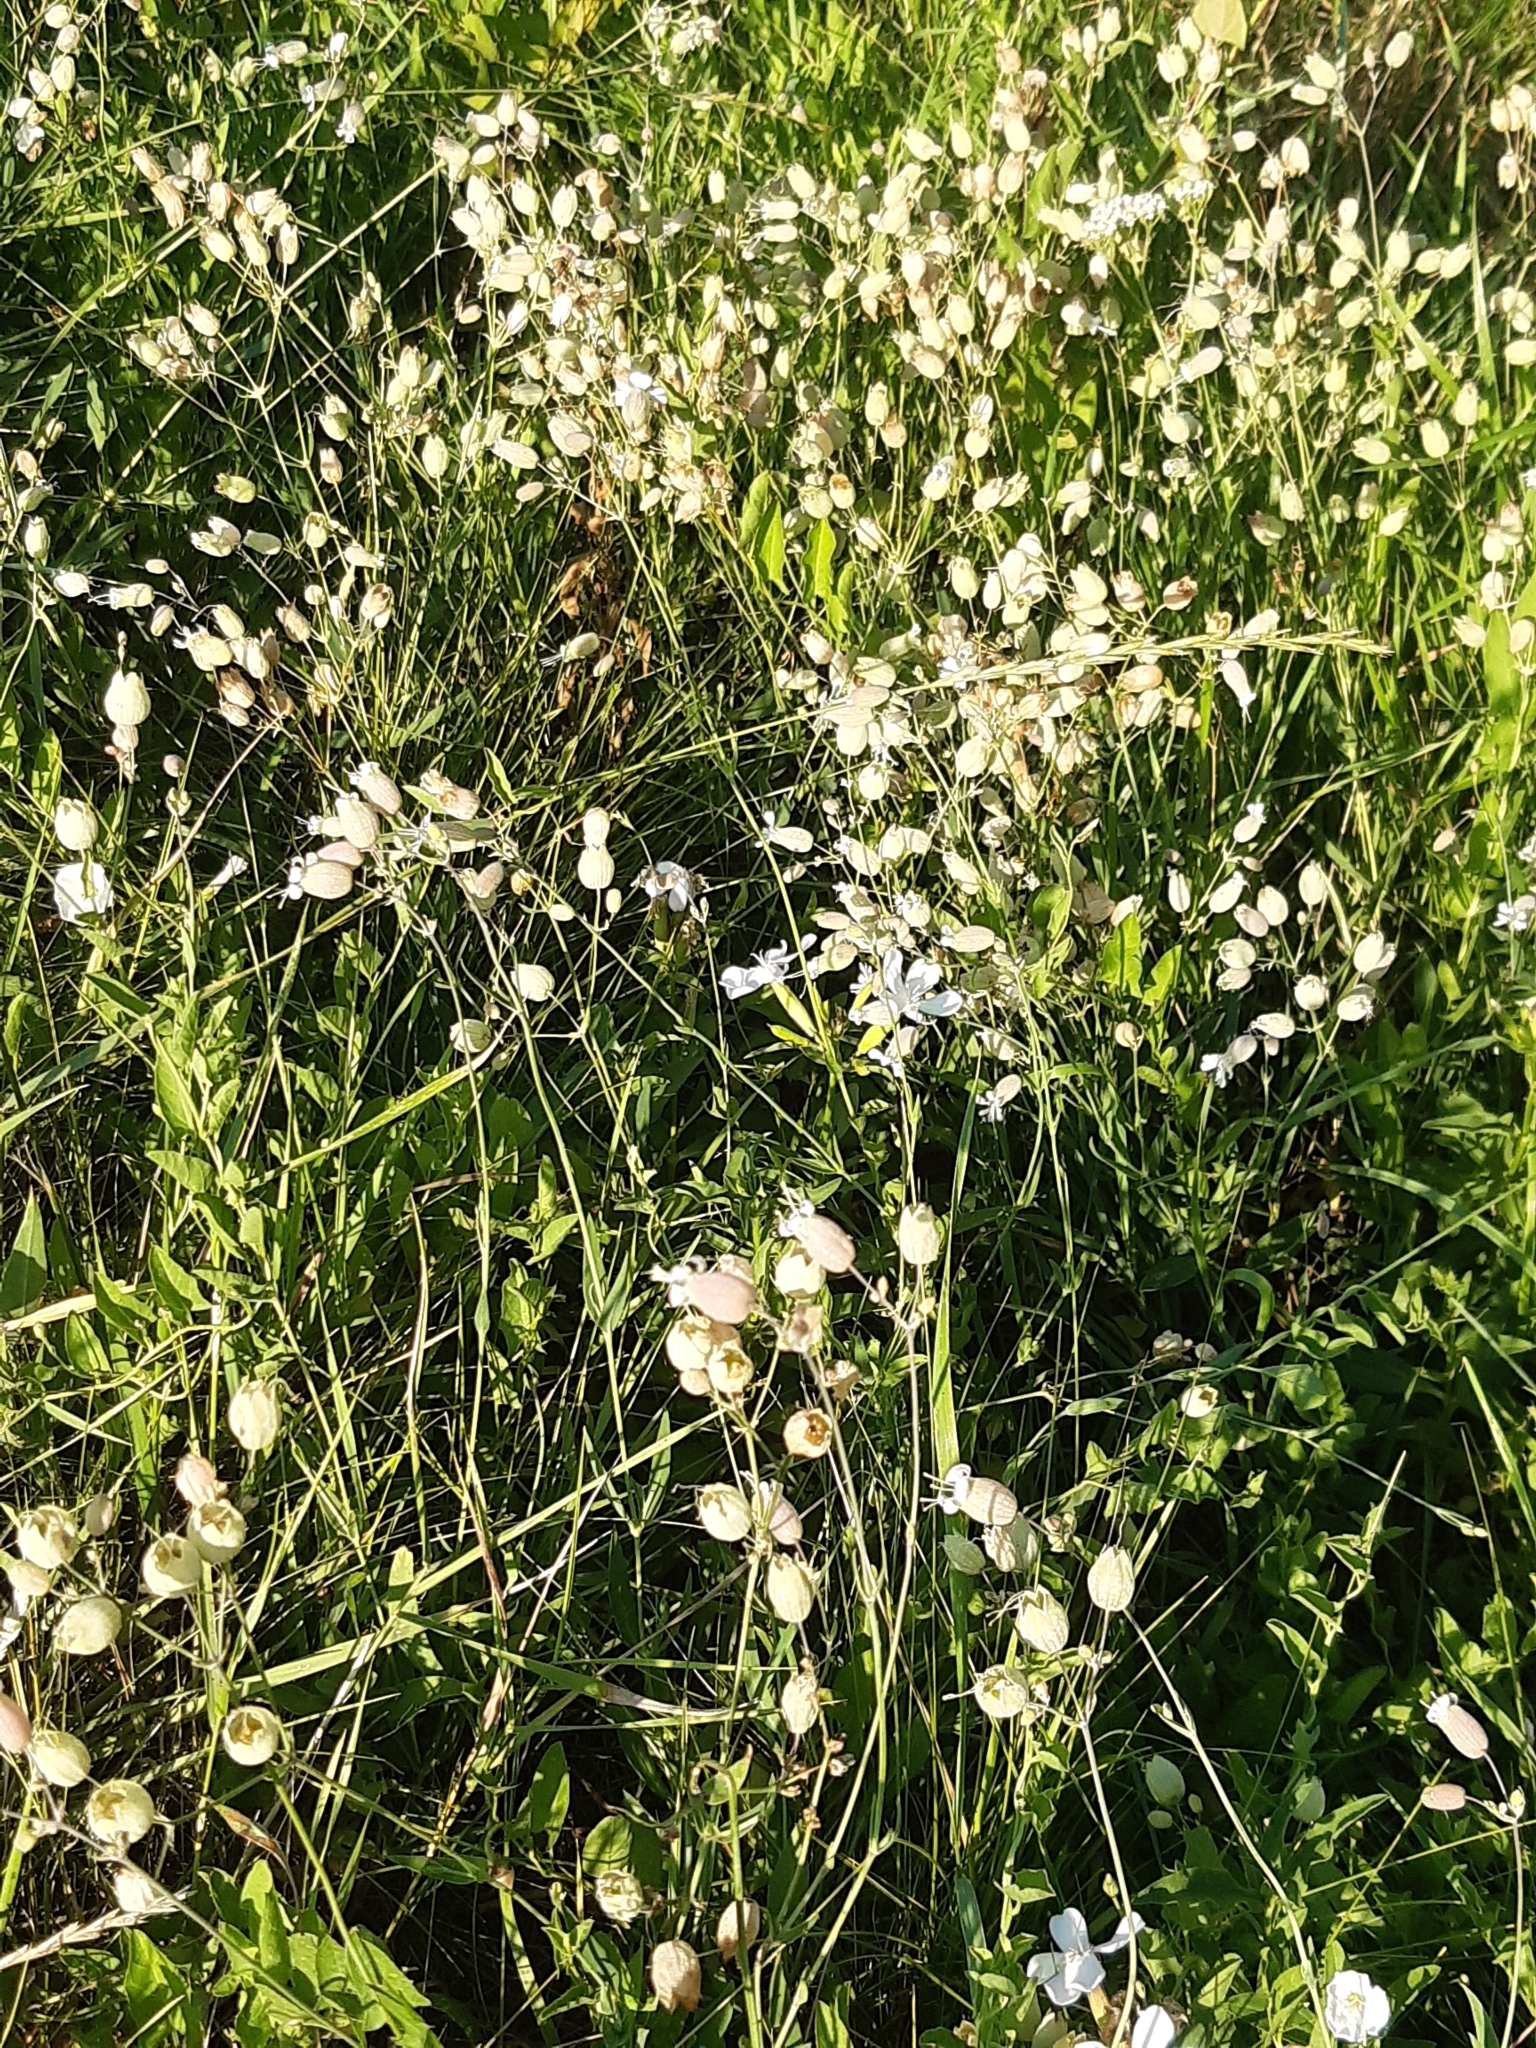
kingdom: Plantae
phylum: Tracheophyta
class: Magnoliopsida
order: Caryophyllales
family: Caryophyllaceae
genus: Silene
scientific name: Silene vulgaris
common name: Bladder campion
